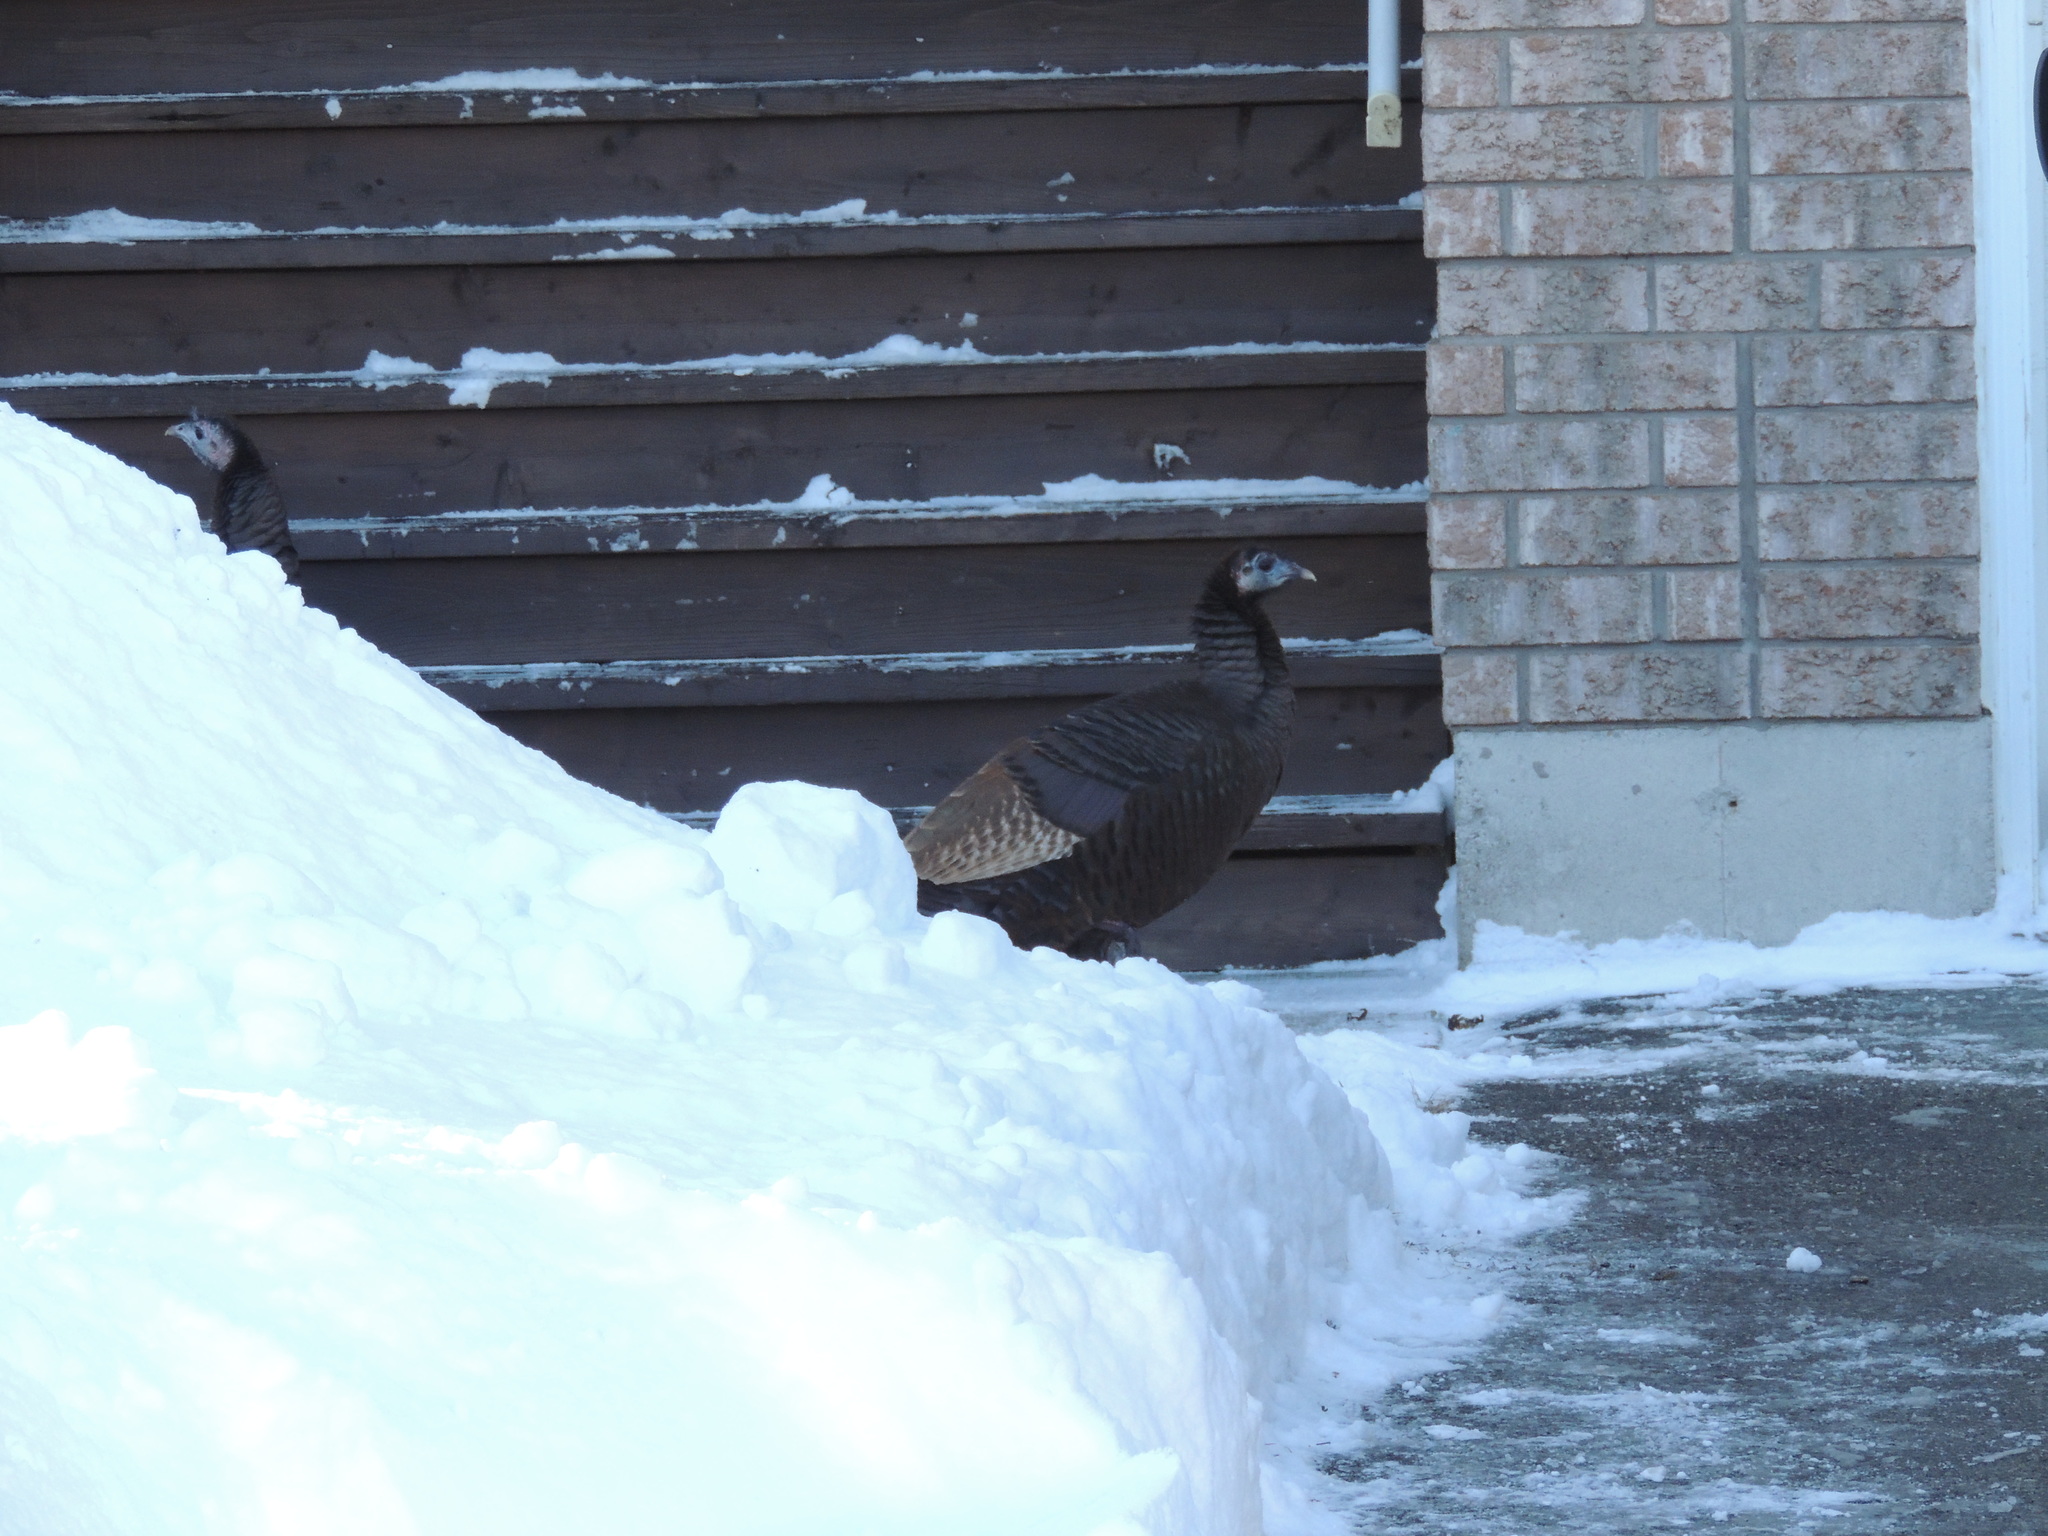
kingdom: Animalia
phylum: Chordata
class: Aves
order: Galliformes
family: Phasianidae
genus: Meleagris
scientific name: Meleagris gallopavo
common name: Wild turkey
